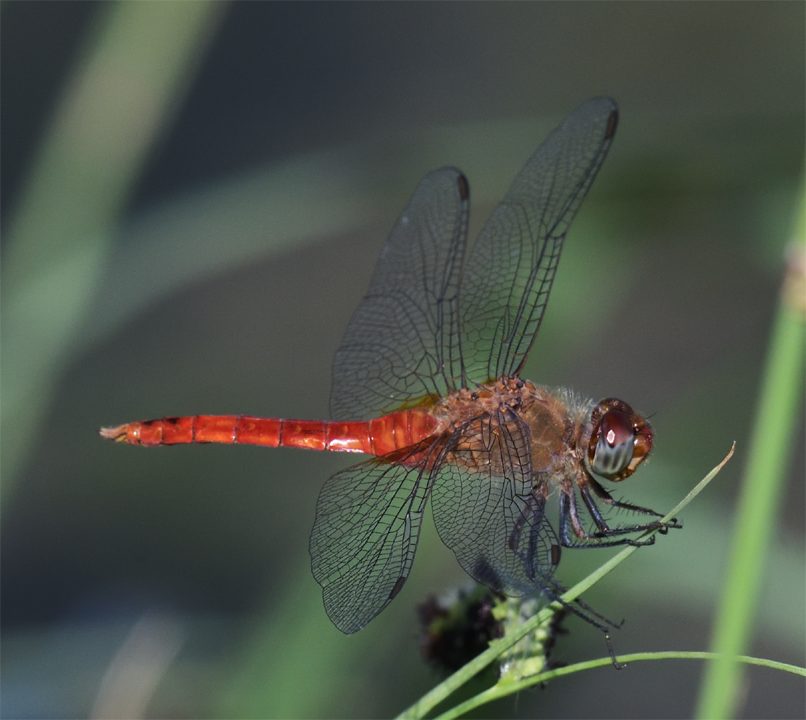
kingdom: Animalia
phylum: Arthropoda
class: Insecta
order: Odonata
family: Libellulidae
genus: Brachymesia
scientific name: Brachymesia furcata
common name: Red-taled pennant
